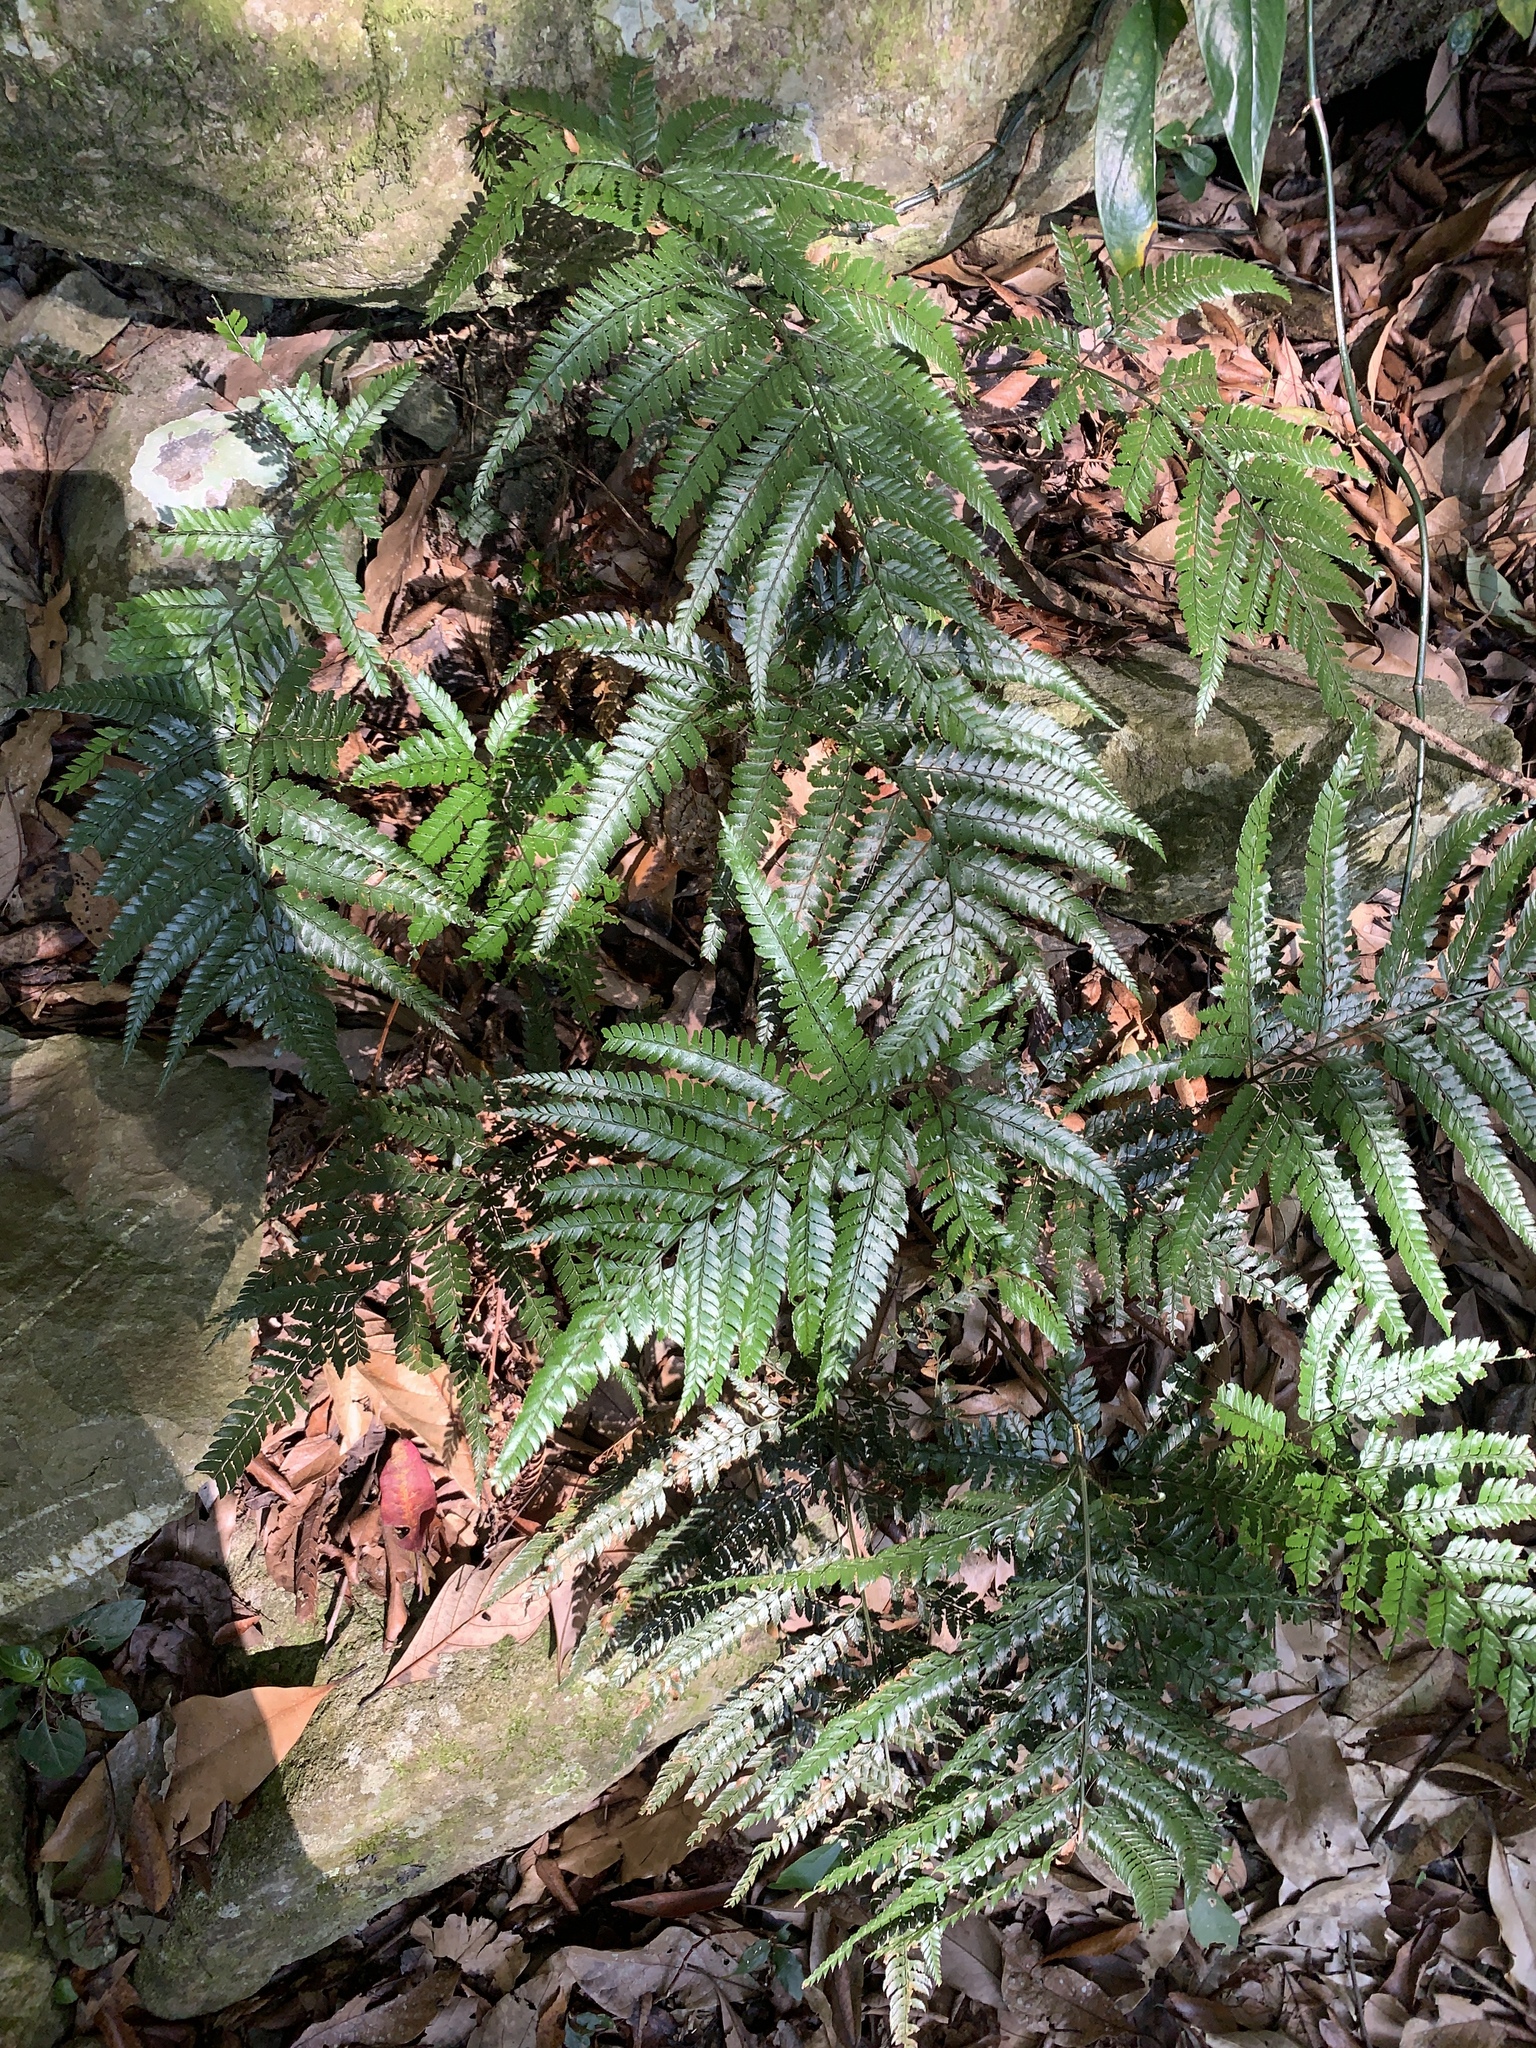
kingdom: Plantae
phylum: Tracheophyta
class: Polypodiopsida
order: Polypodiales
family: Dryopteridaceae
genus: Arachniodes
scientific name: Arachniodes aristata
